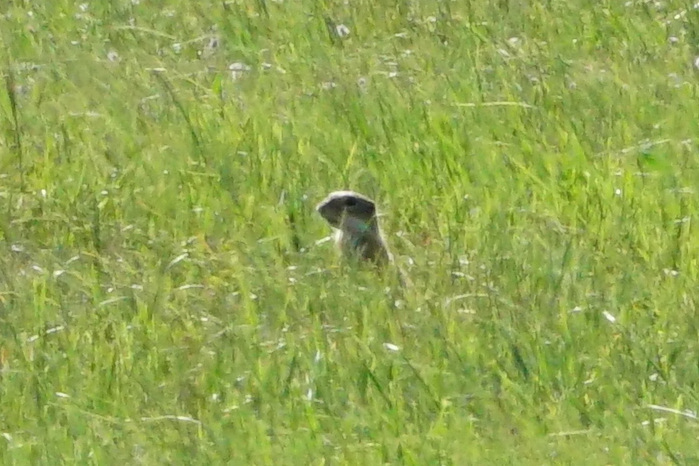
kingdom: Animalia
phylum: Chordata
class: Mammalia
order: Rodentia
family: Sciuridae
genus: Spermophilus
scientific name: Spermophilus citellus
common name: European ground squirrel
